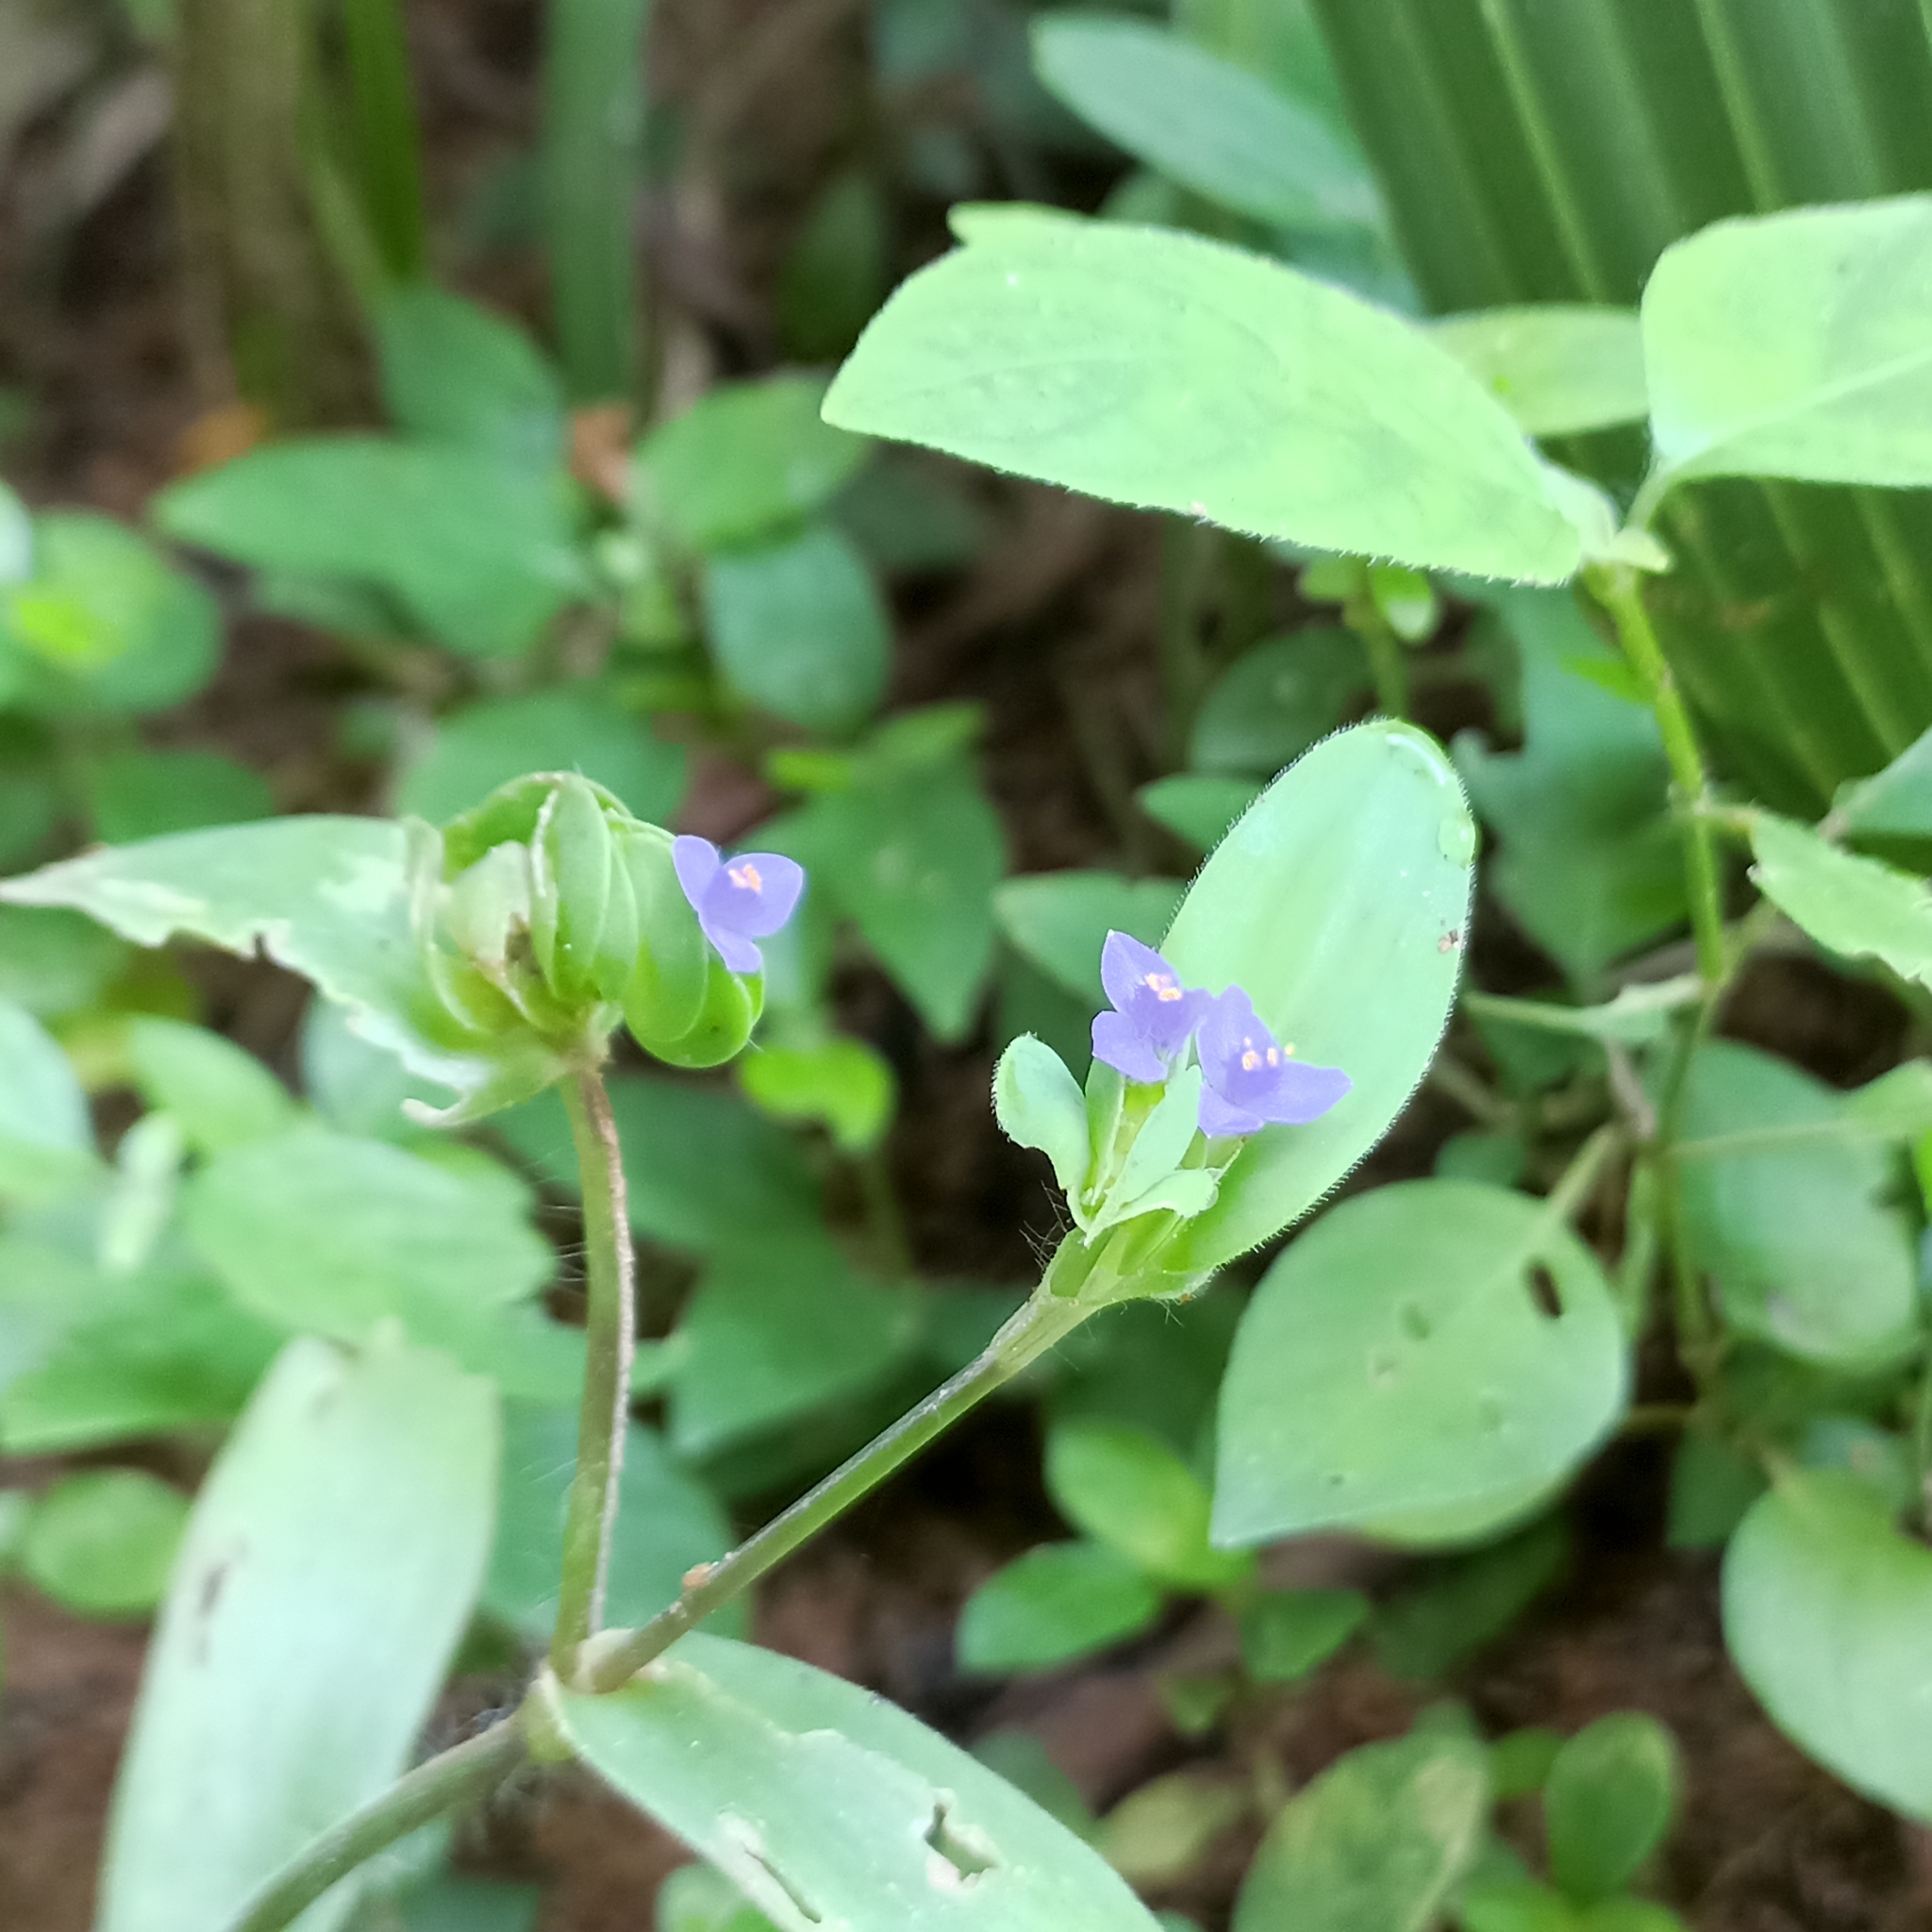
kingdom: Plantae
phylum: Tracheophyta
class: Liliopsida
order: Commelinales
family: Commelinaceae
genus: Cyanotis
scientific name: Cyanotis cristata
